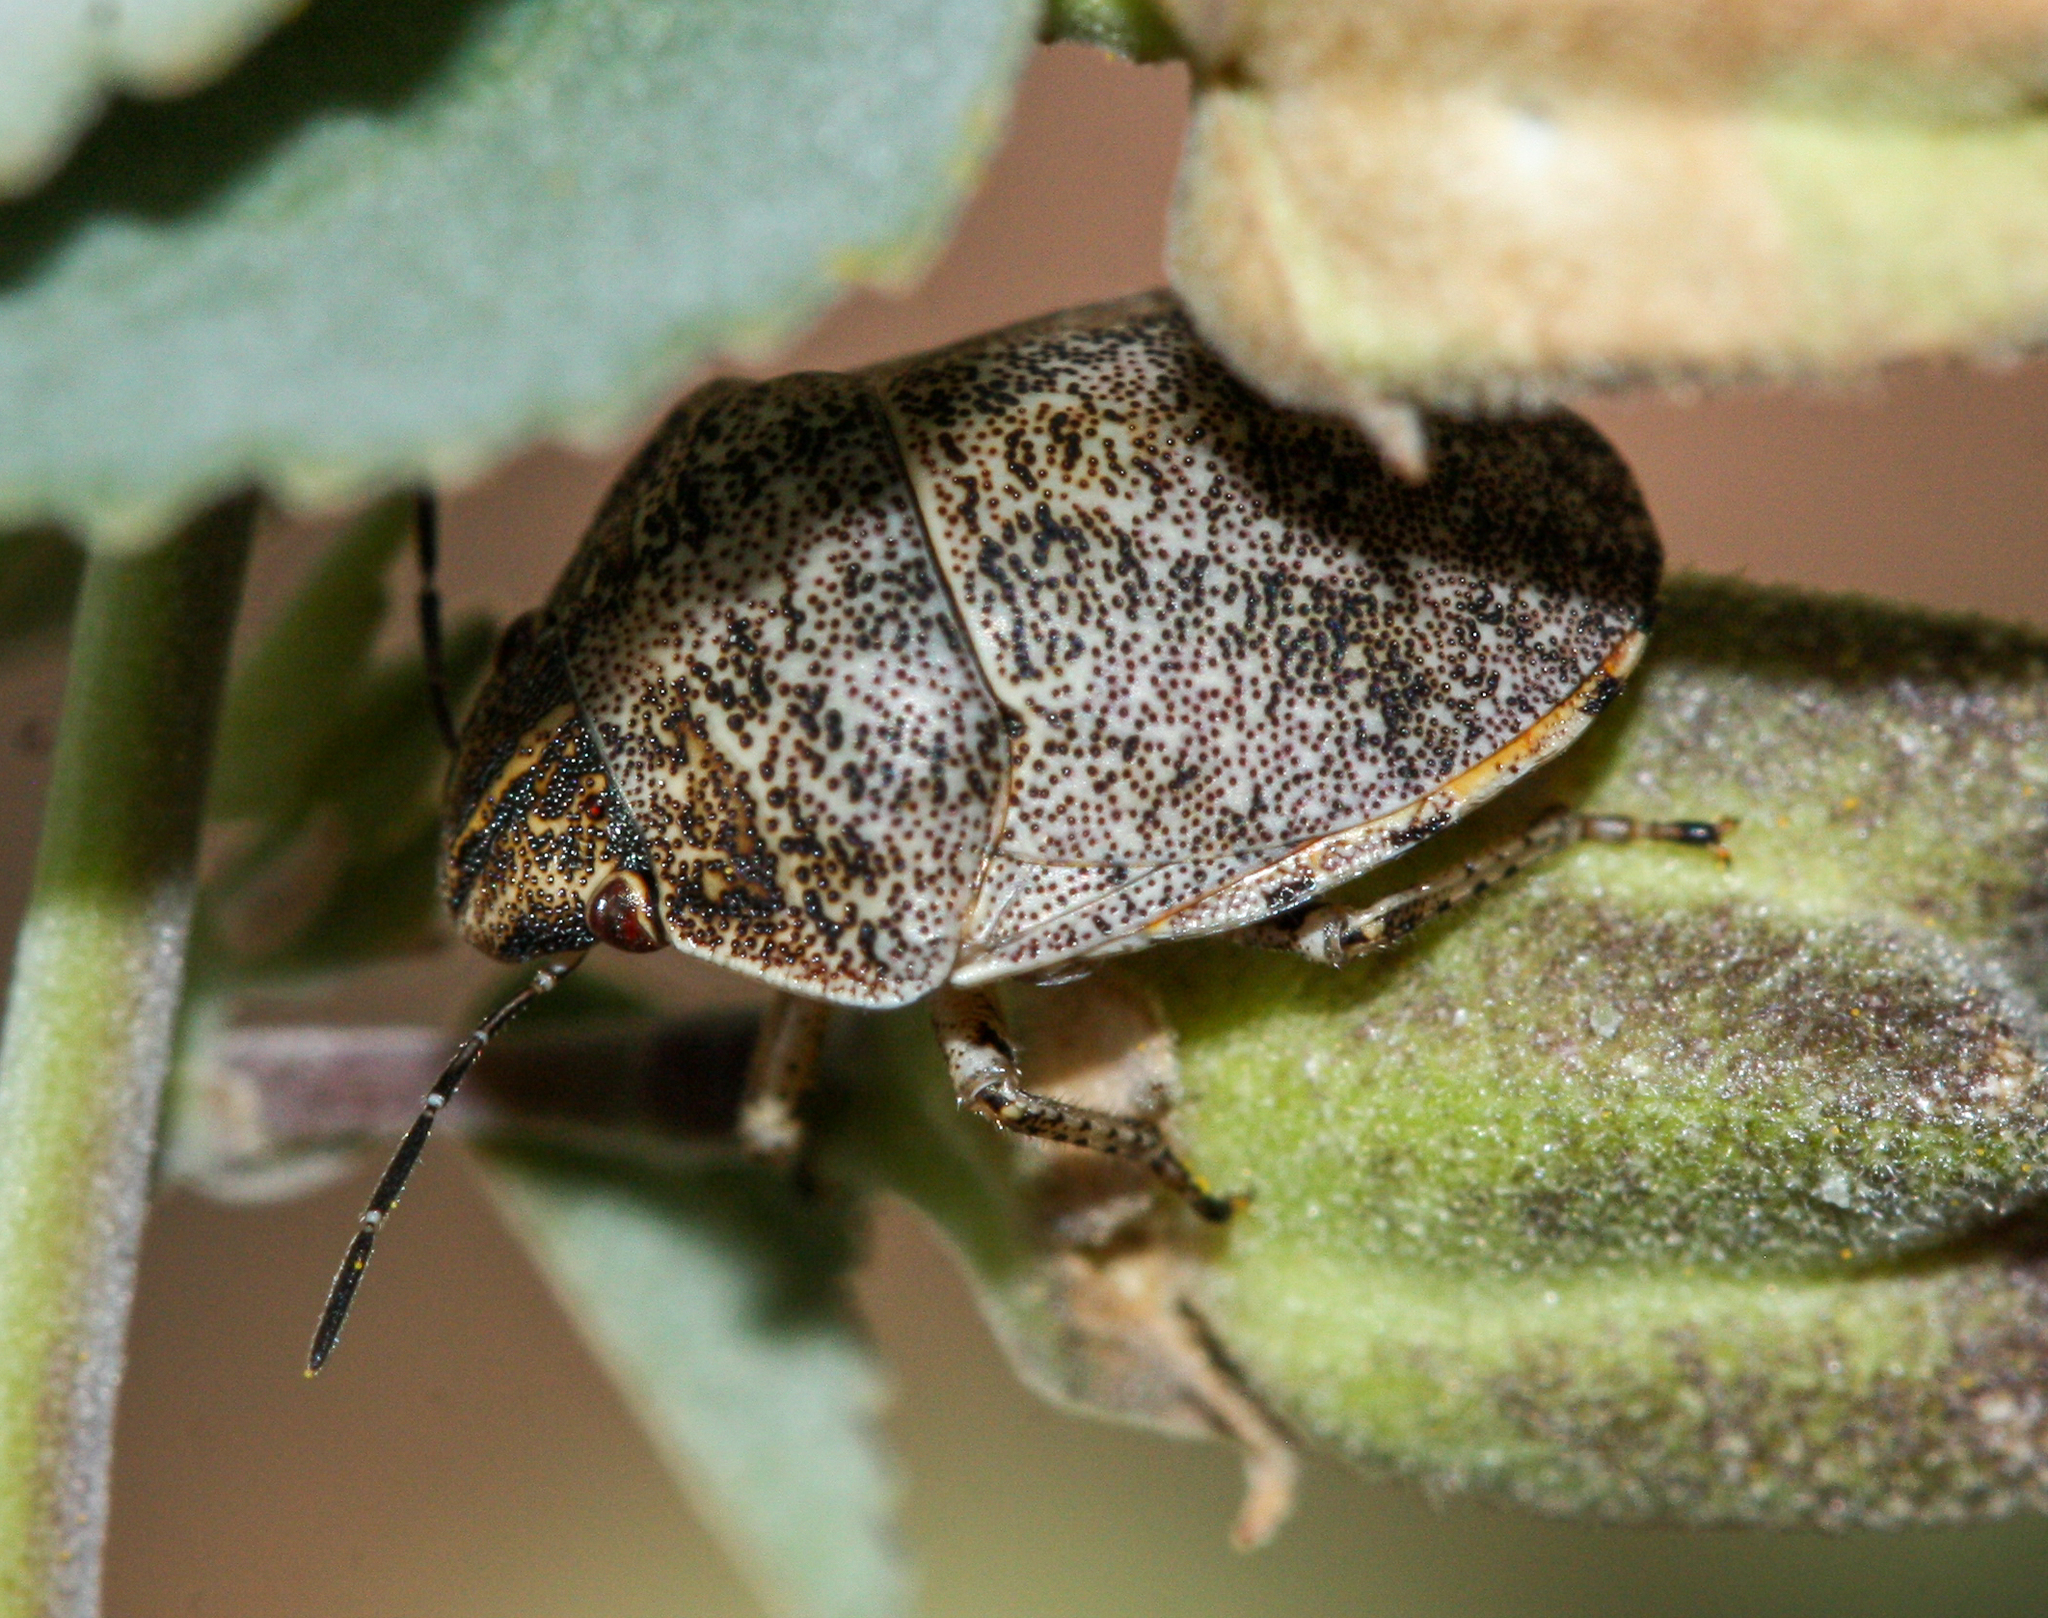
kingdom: Animalia
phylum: Arthropoda
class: Insecta
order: Hemiptera
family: Scutelleridae
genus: Sphyrocoris
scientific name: Sphyrocoris obliquus
